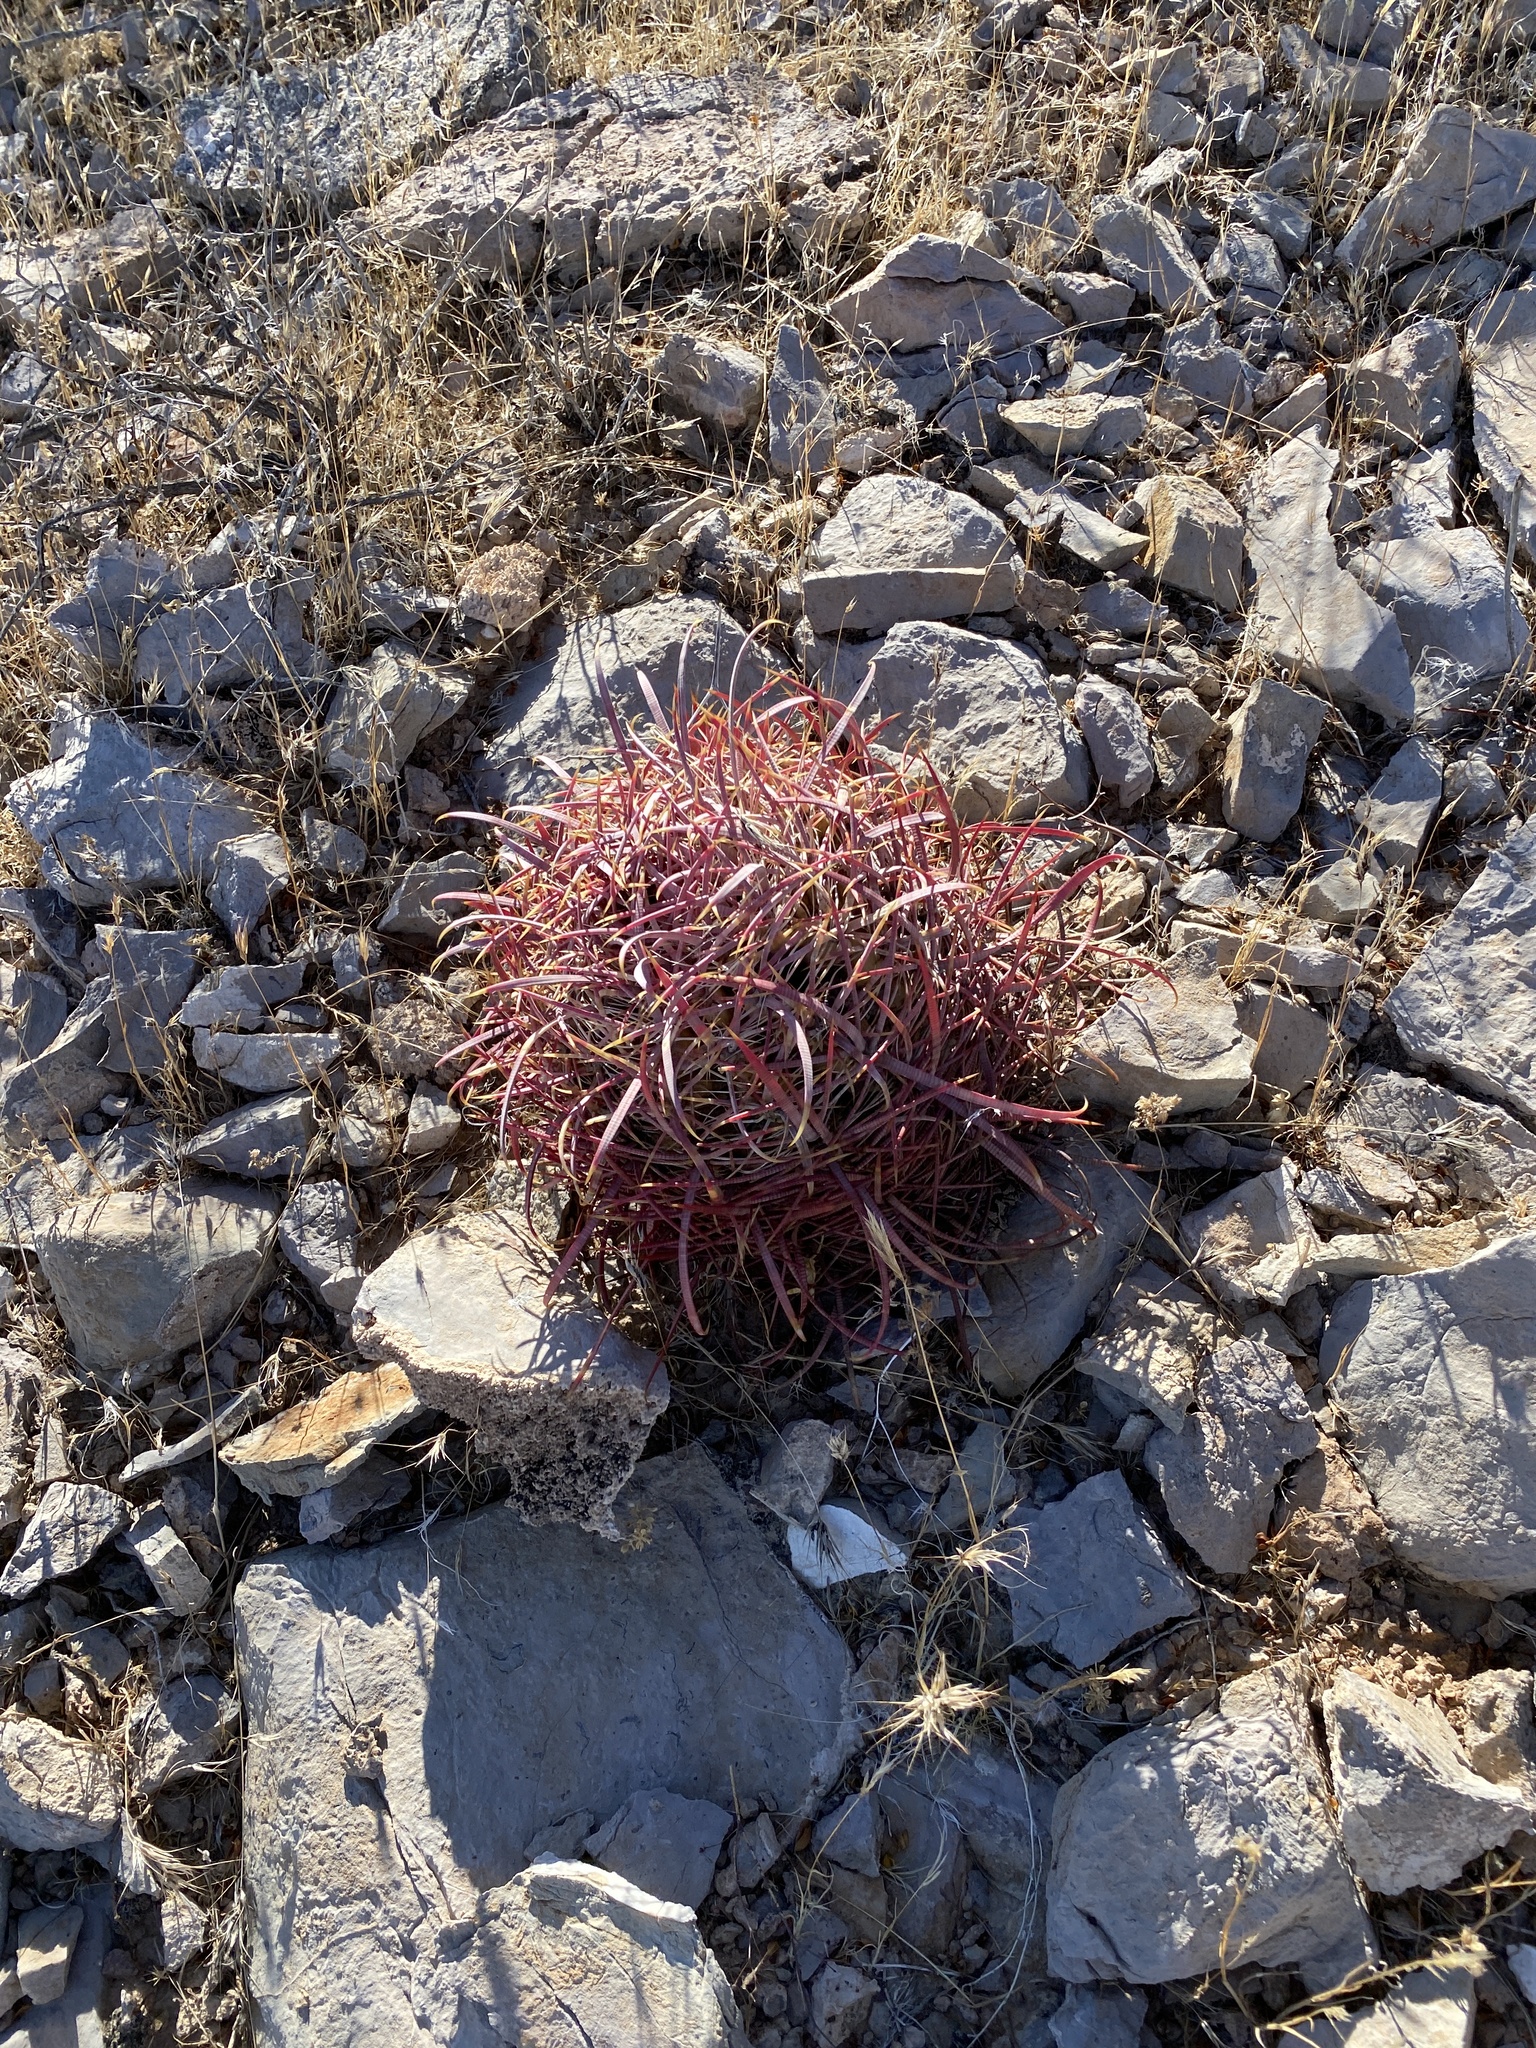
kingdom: Plantae
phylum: Tracheophyta
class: Magnoliopsida
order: Caryophyllales
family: Cactaceae
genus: Ferocactus
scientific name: Ferocactus cylindraceus
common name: California barrel cactus
